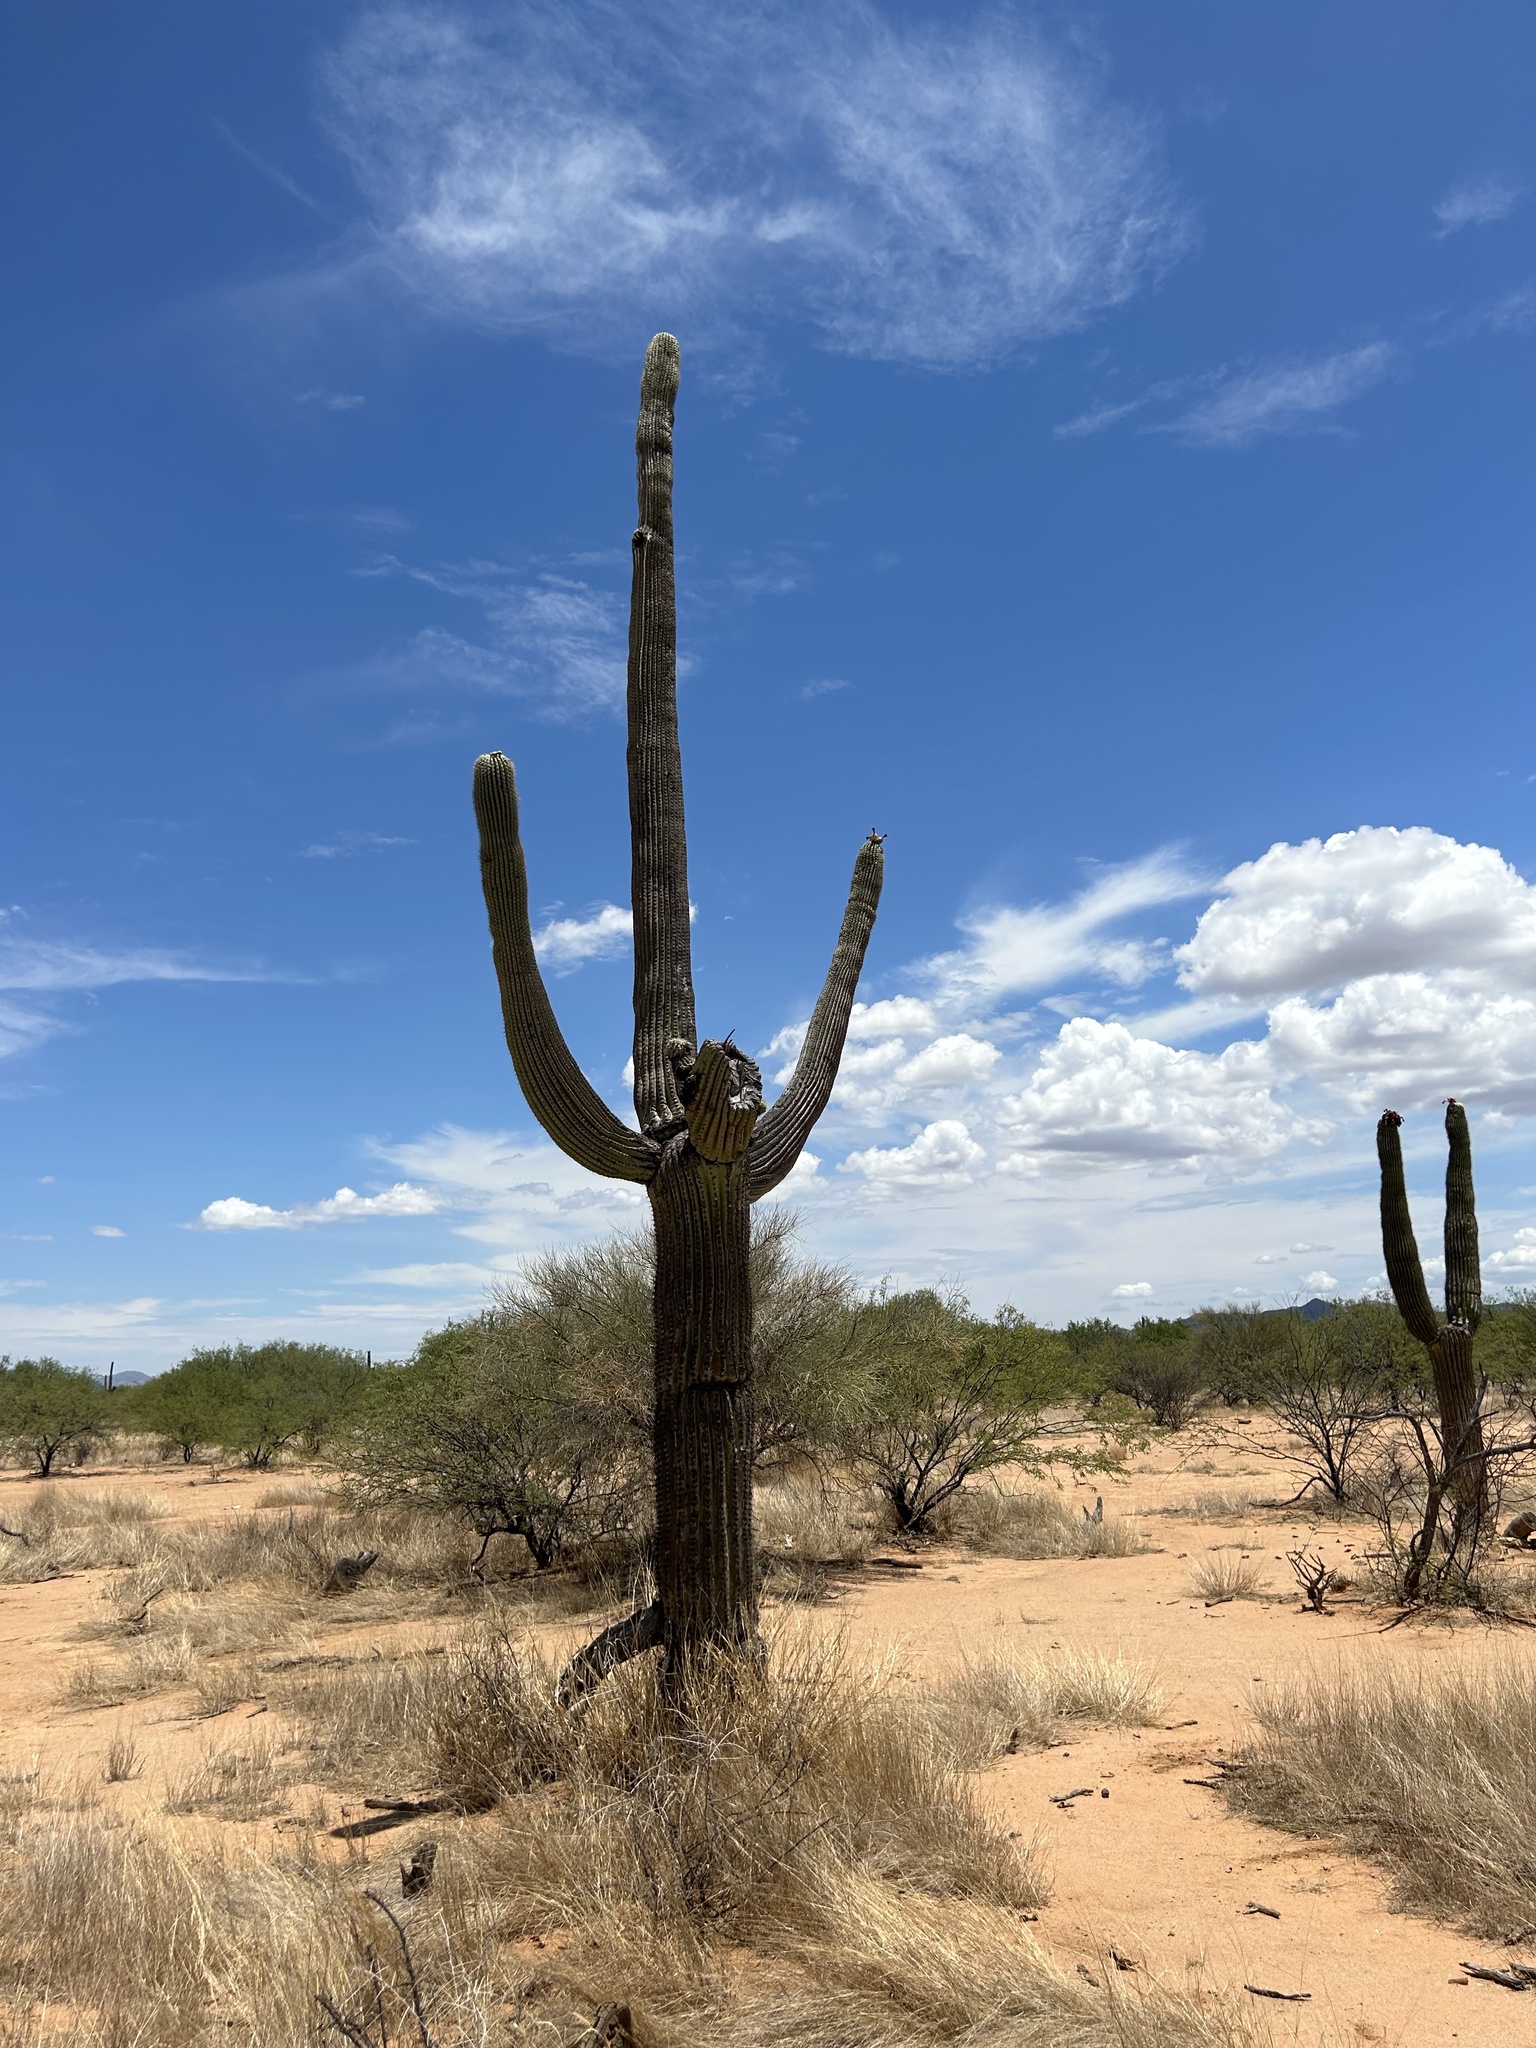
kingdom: Plantae
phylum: Tracheophyta
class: Magnoliopsida
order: Caryophyllales
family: Cactaceae
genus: Carnegiea
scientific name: Carnegiea gigantea
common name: Saguaro
